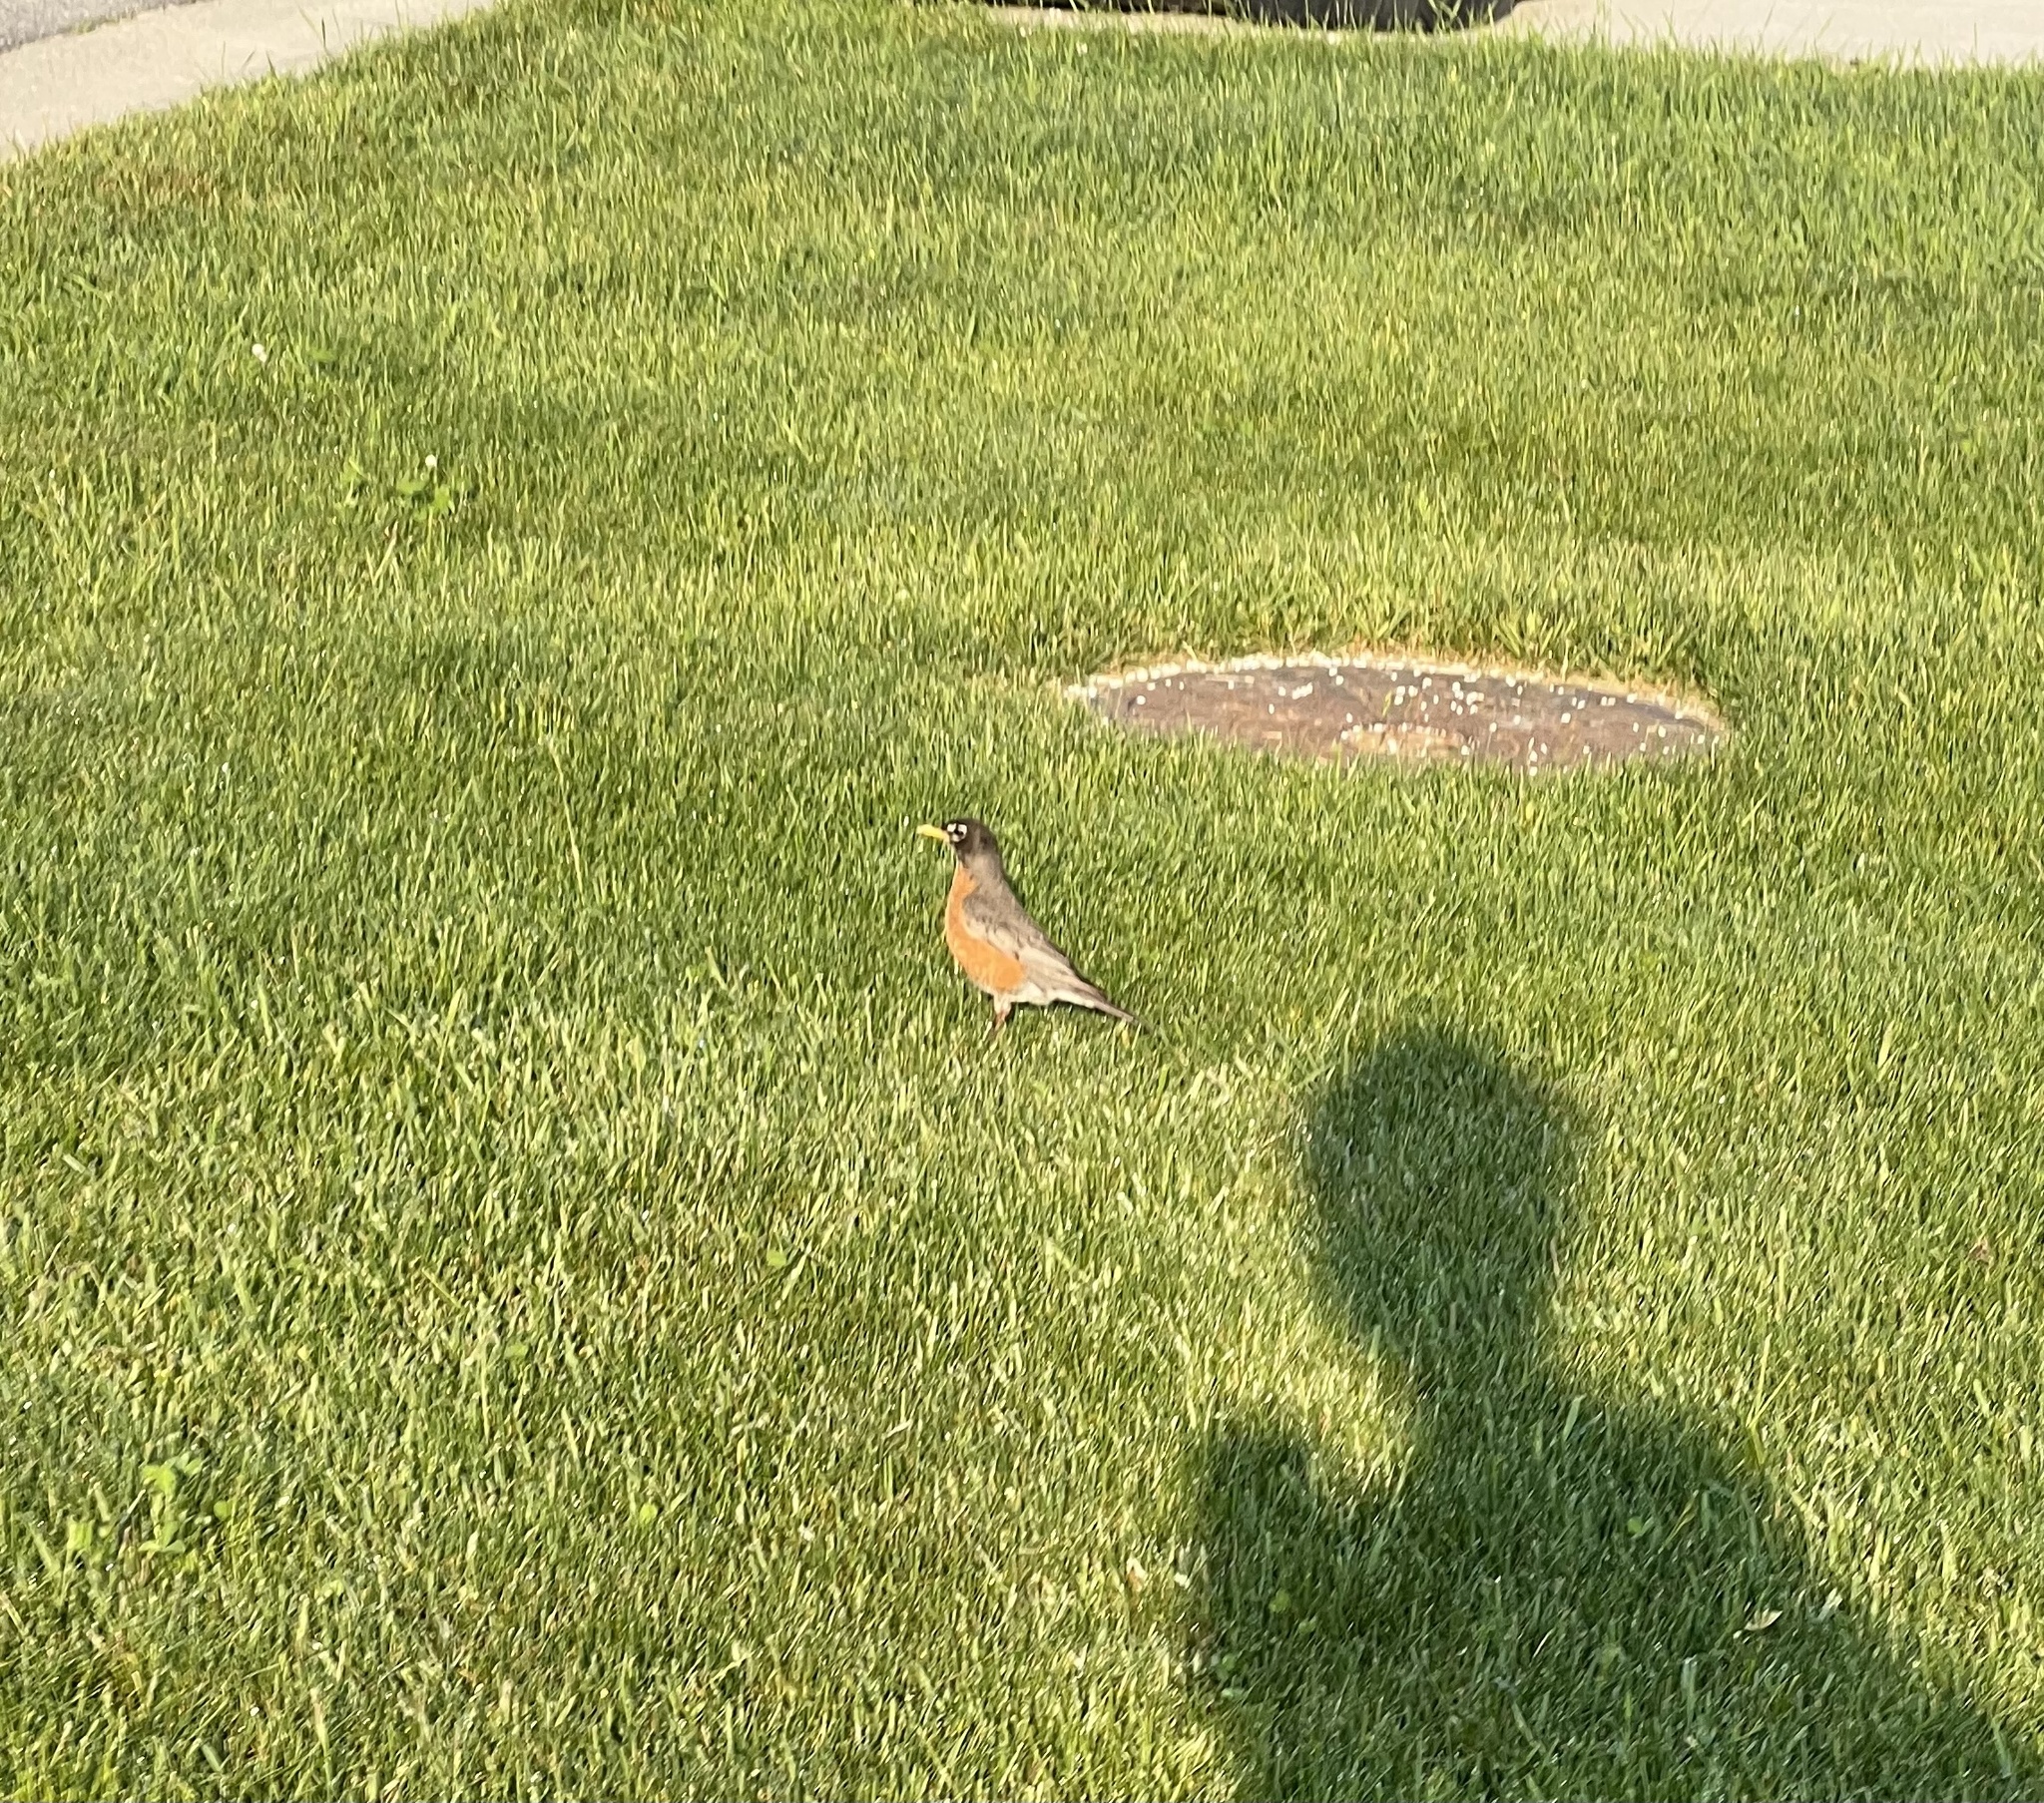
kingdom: Animalia
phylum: Chordata
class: Aves
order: Passeriformes
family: Turdidae
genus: Turdus
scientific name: Turdus migratorius
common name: American robin
